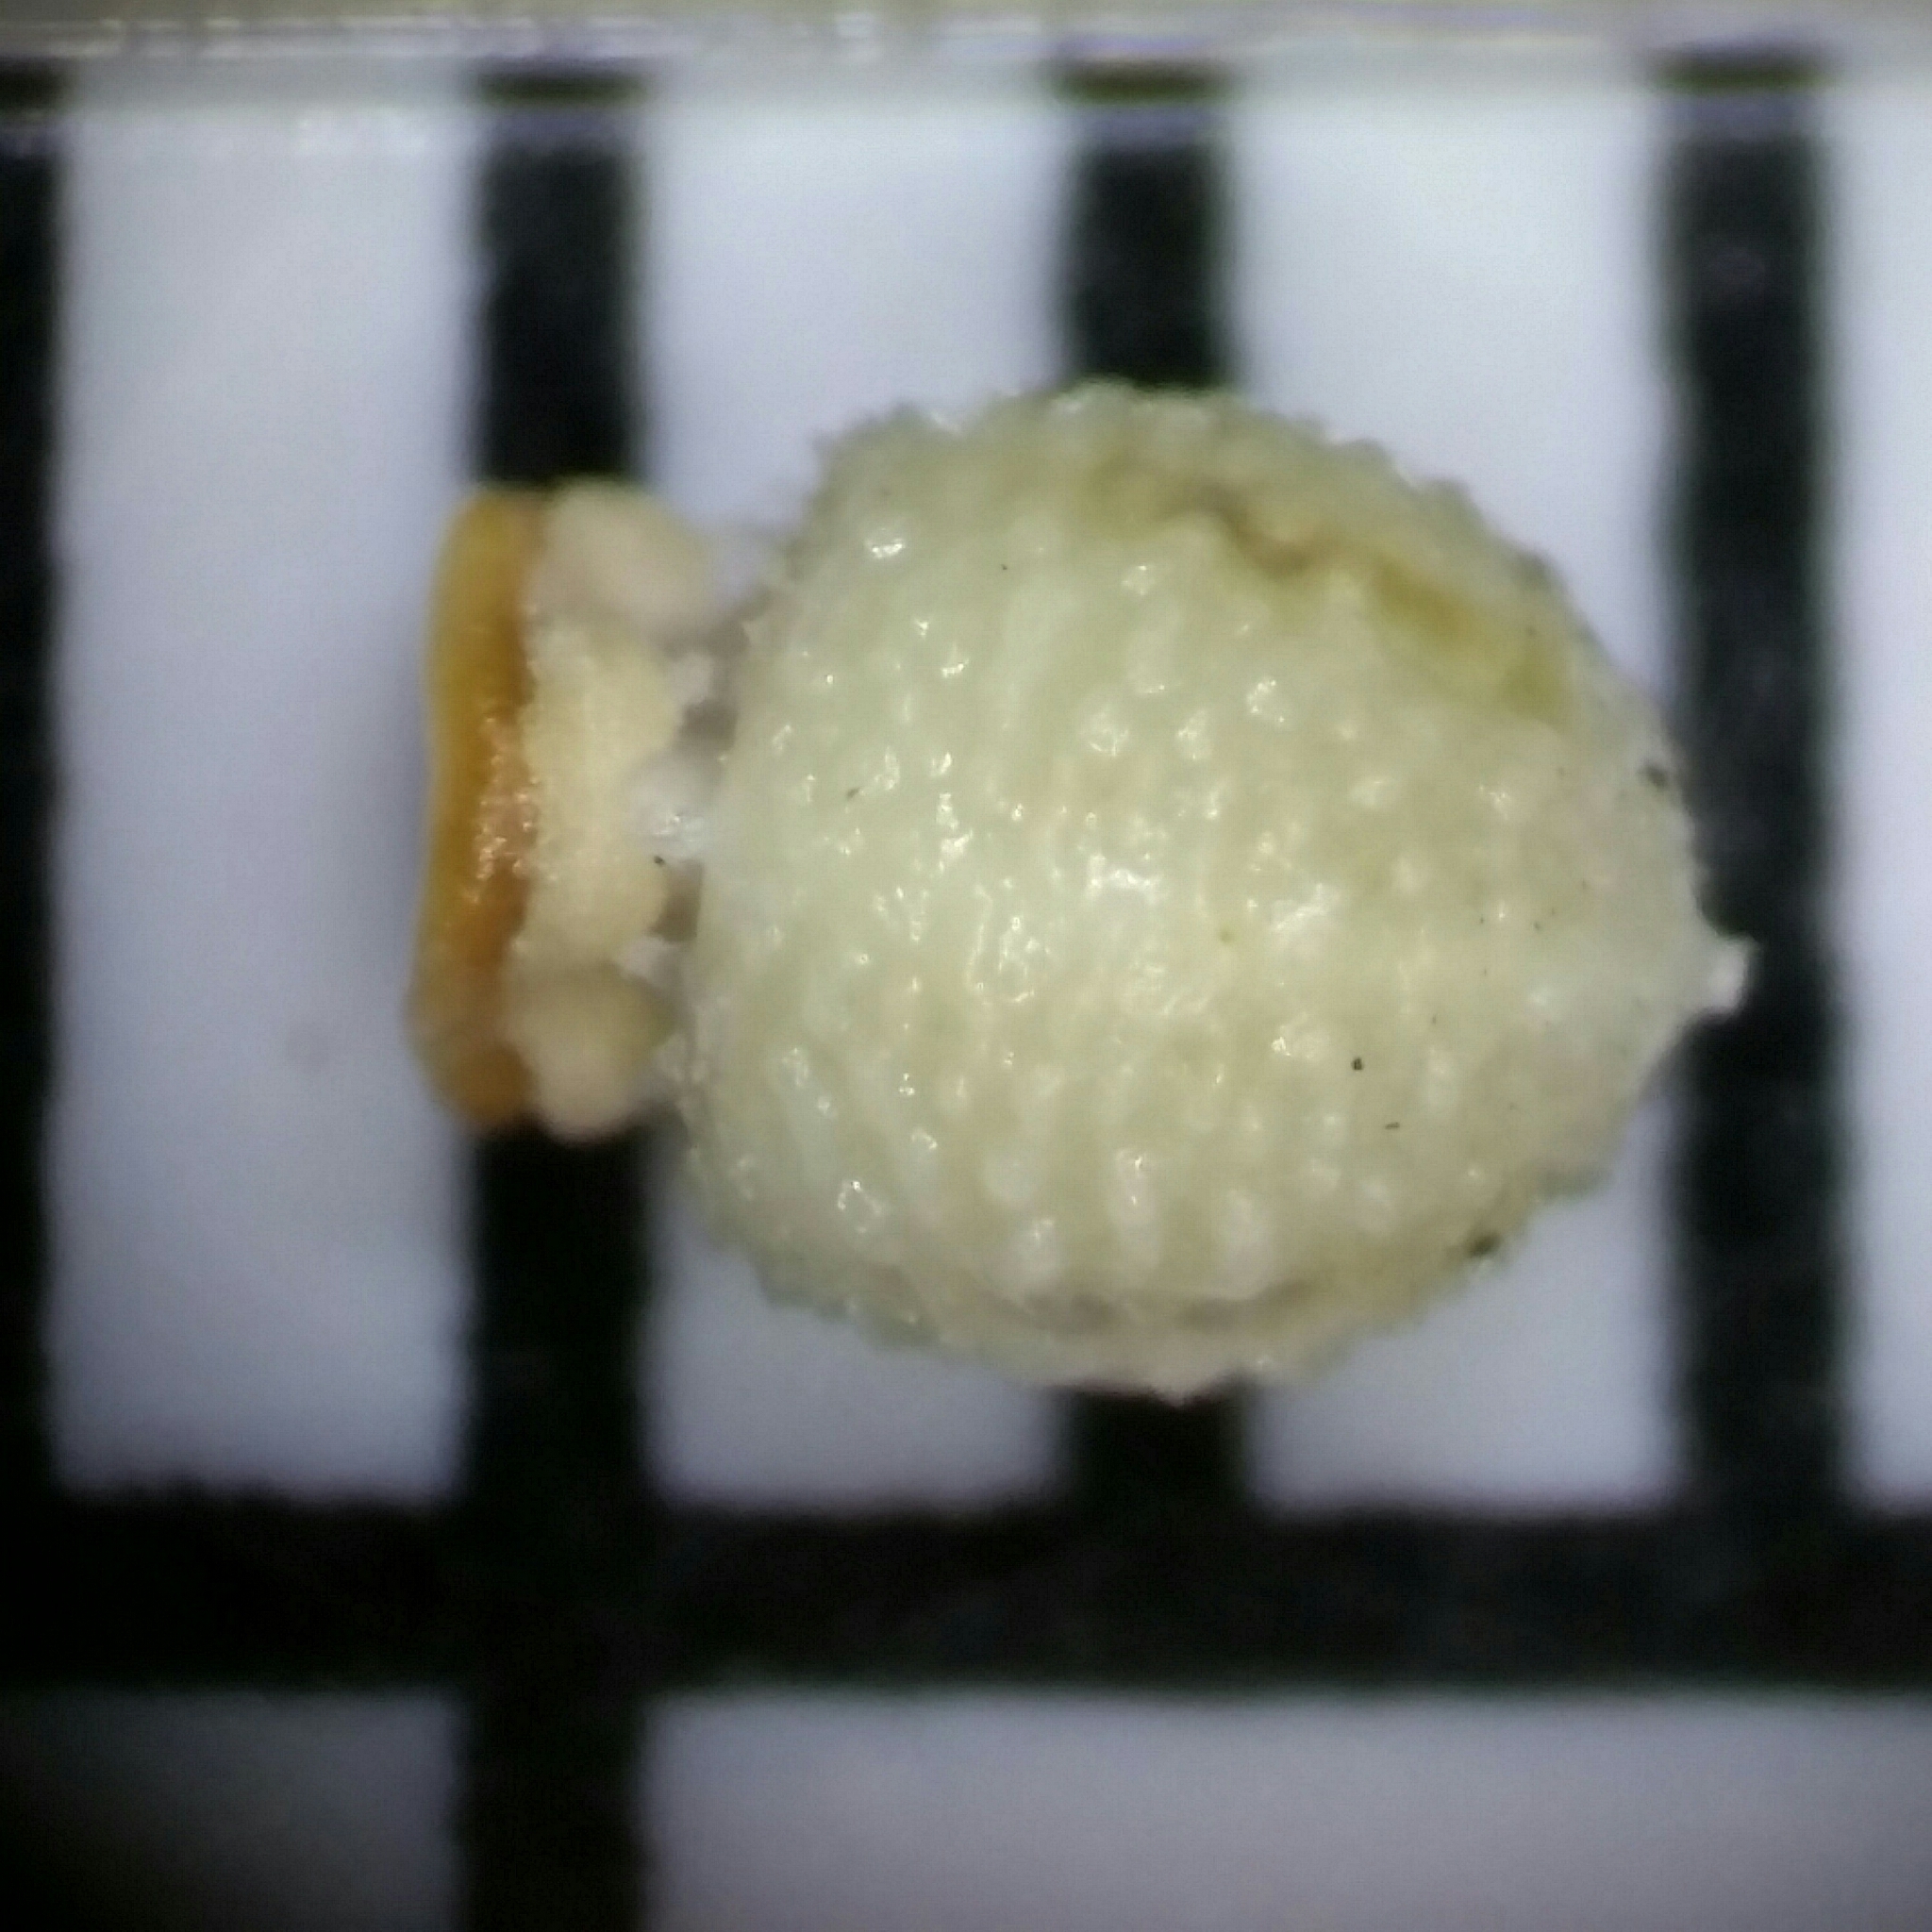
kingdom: Plantae
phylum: Tracheophyta
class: Liliopsida
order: Poales
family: Cyperaceae
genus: Scleria
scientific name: Scleria ciliata
